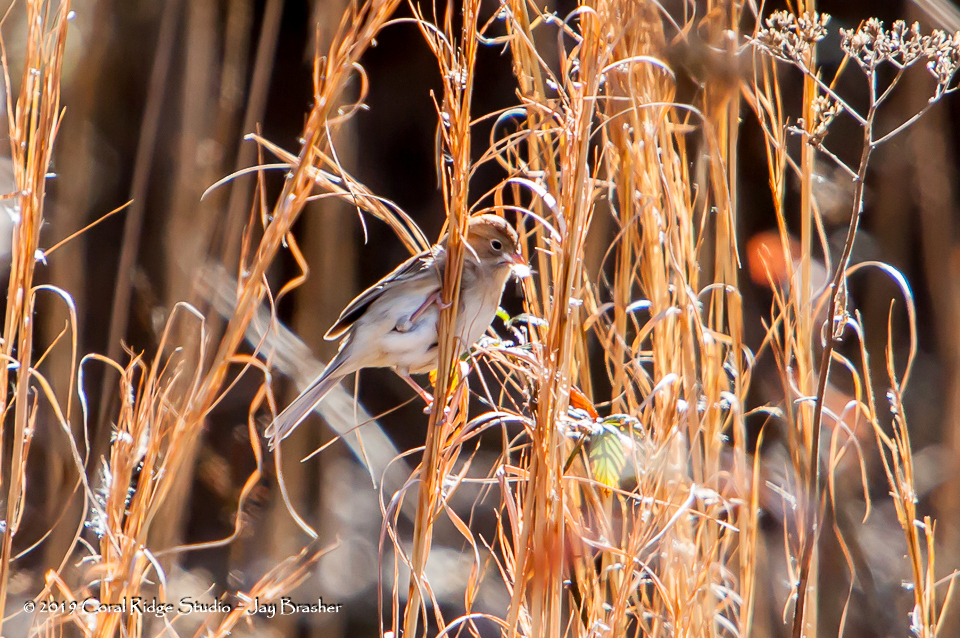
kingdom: Animalia
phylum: Chordata
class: Aves
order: Passeriformes
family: Passerellidae
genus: Spizella
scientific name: Spizella pusilla
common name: Field sparrow
